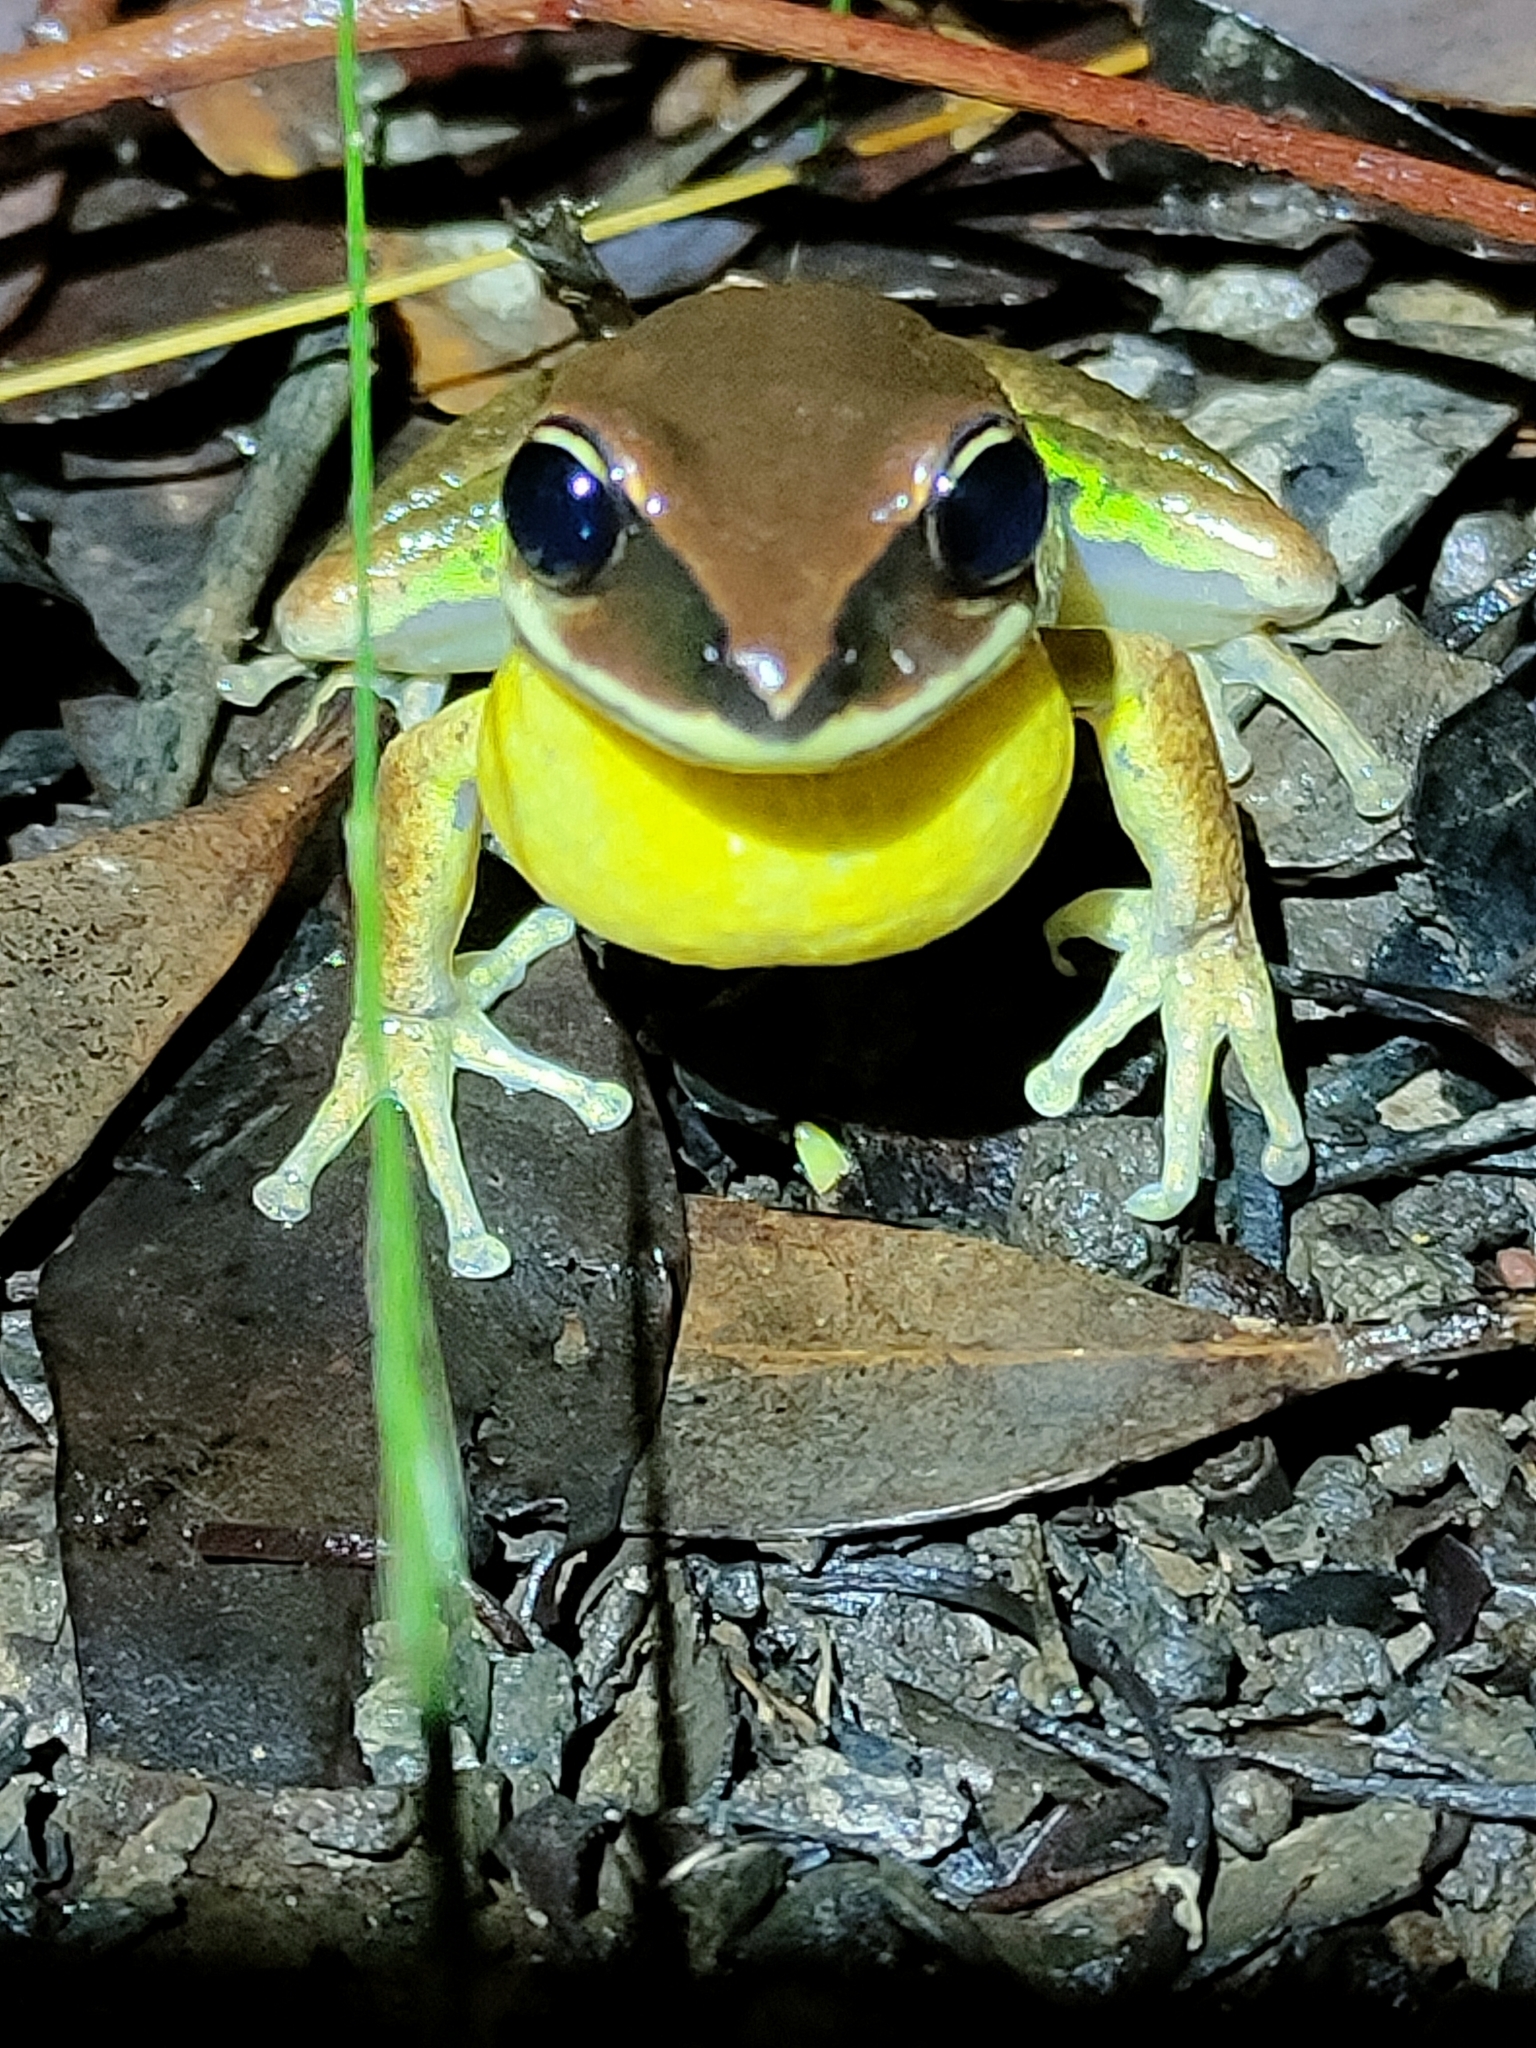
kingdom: Animalia
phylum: Chordata
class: Amphibia
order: Anura
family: Pelodryadidae
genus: Nyctimystes
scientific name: Nyctimystes brevipalmatus
